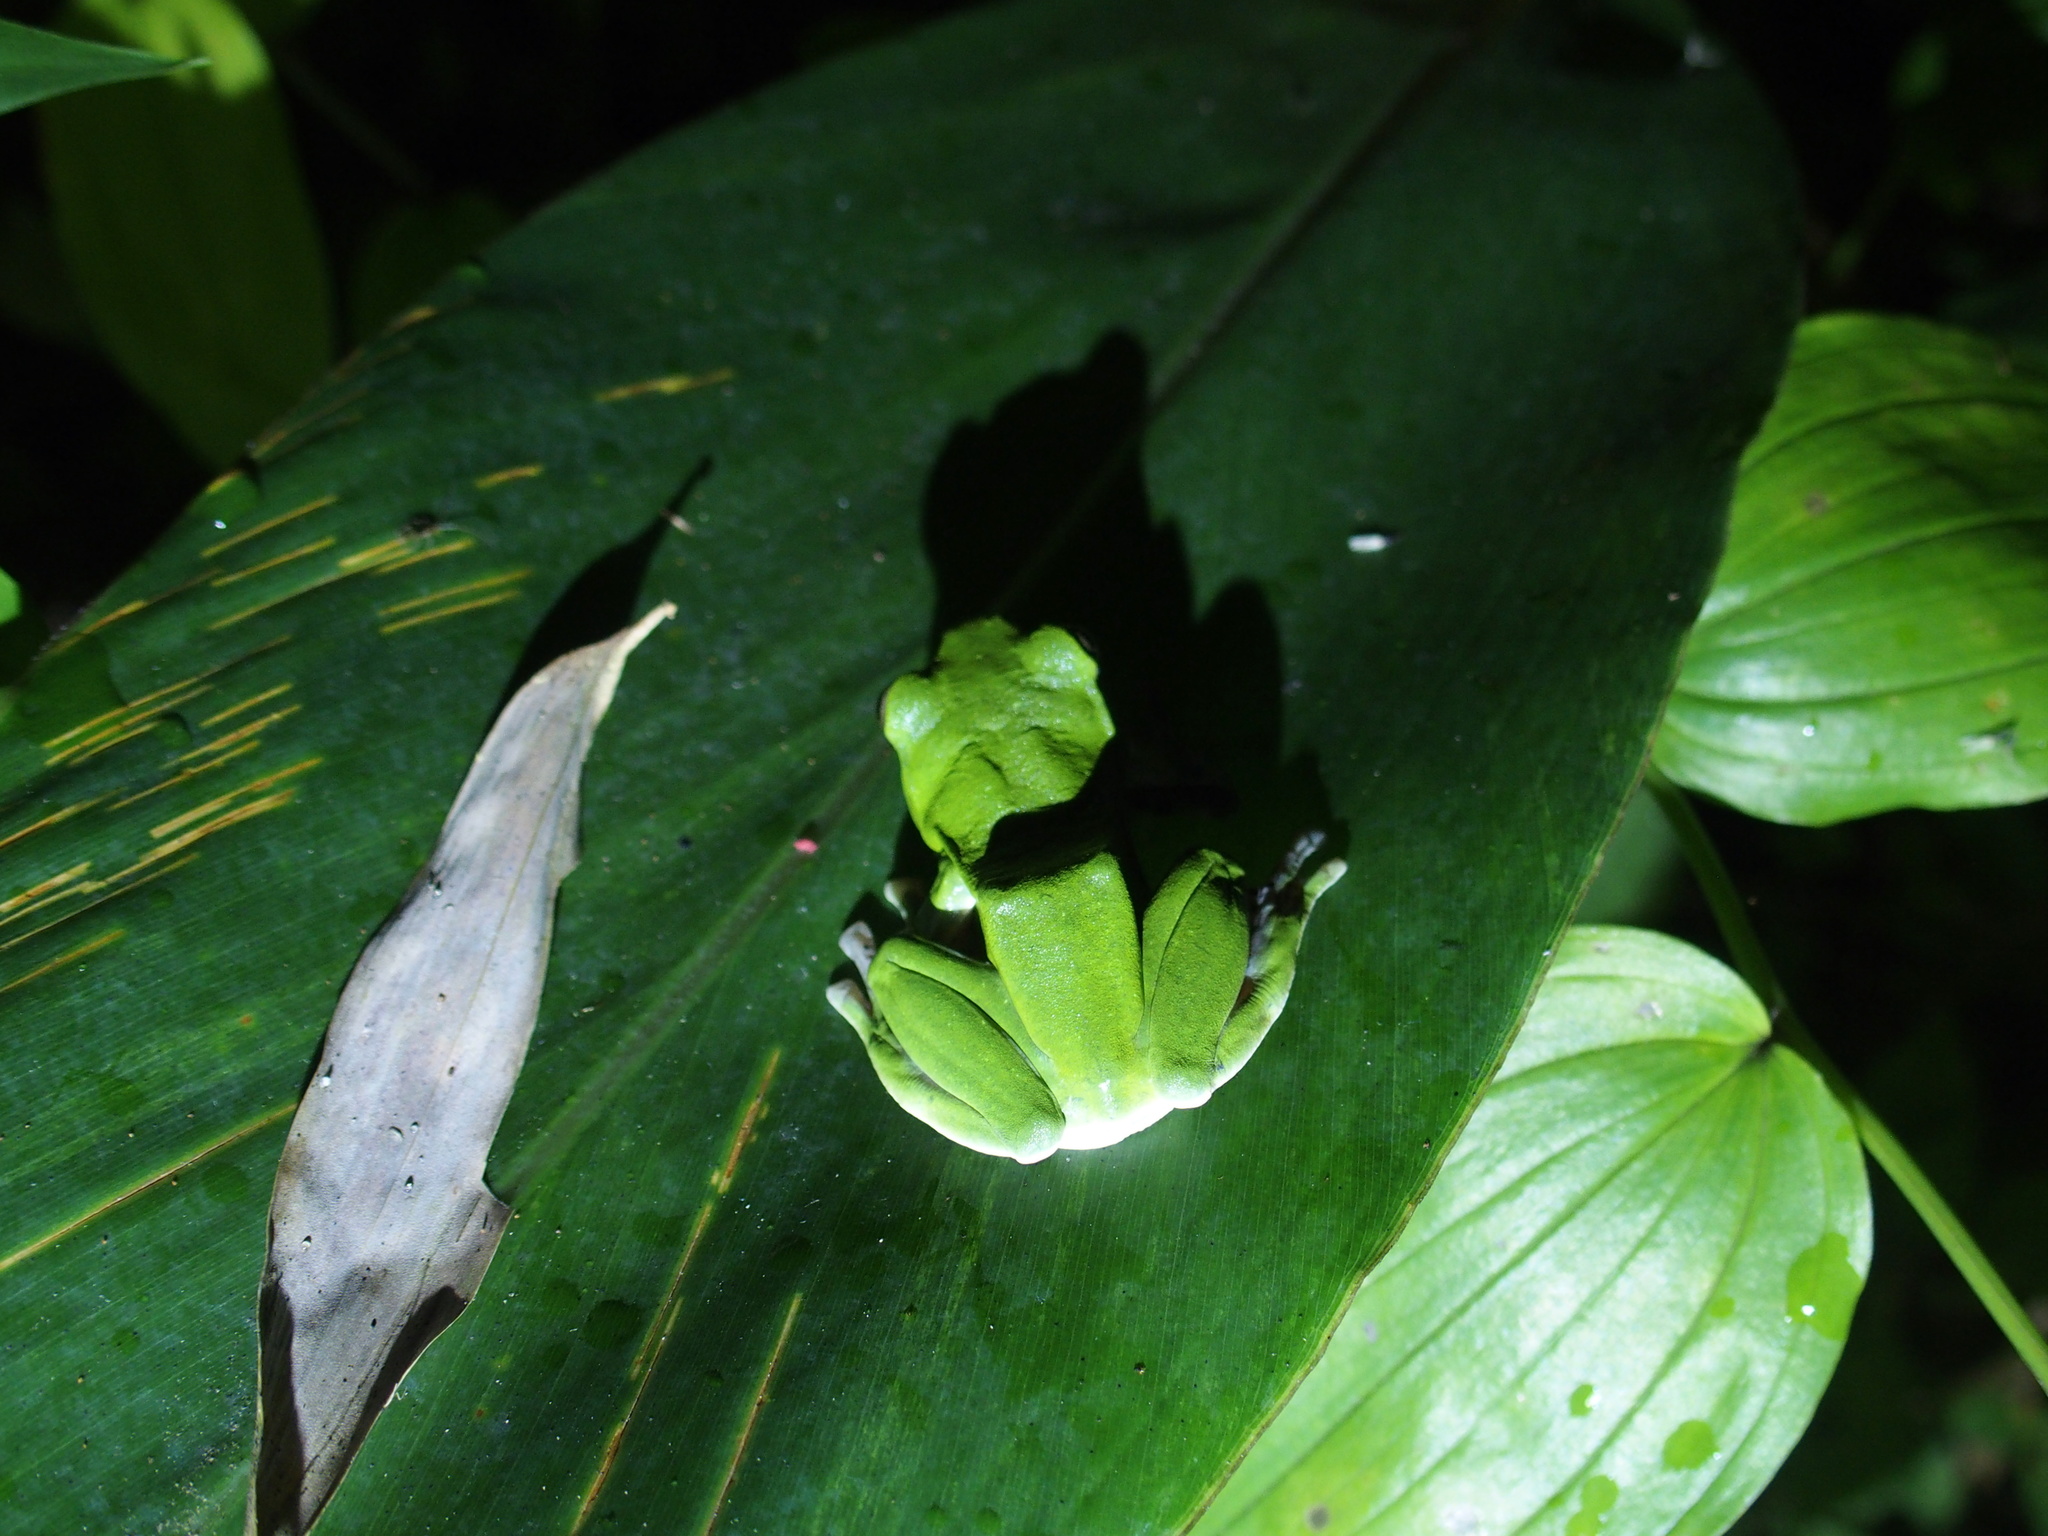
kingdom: Animalia
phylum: Chordata
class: Amphibia
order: Anura
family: Rhacophoridae
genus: Zhangixalus
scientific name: Zhangixalus moltrechti
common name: Moltrecht's treefrog
